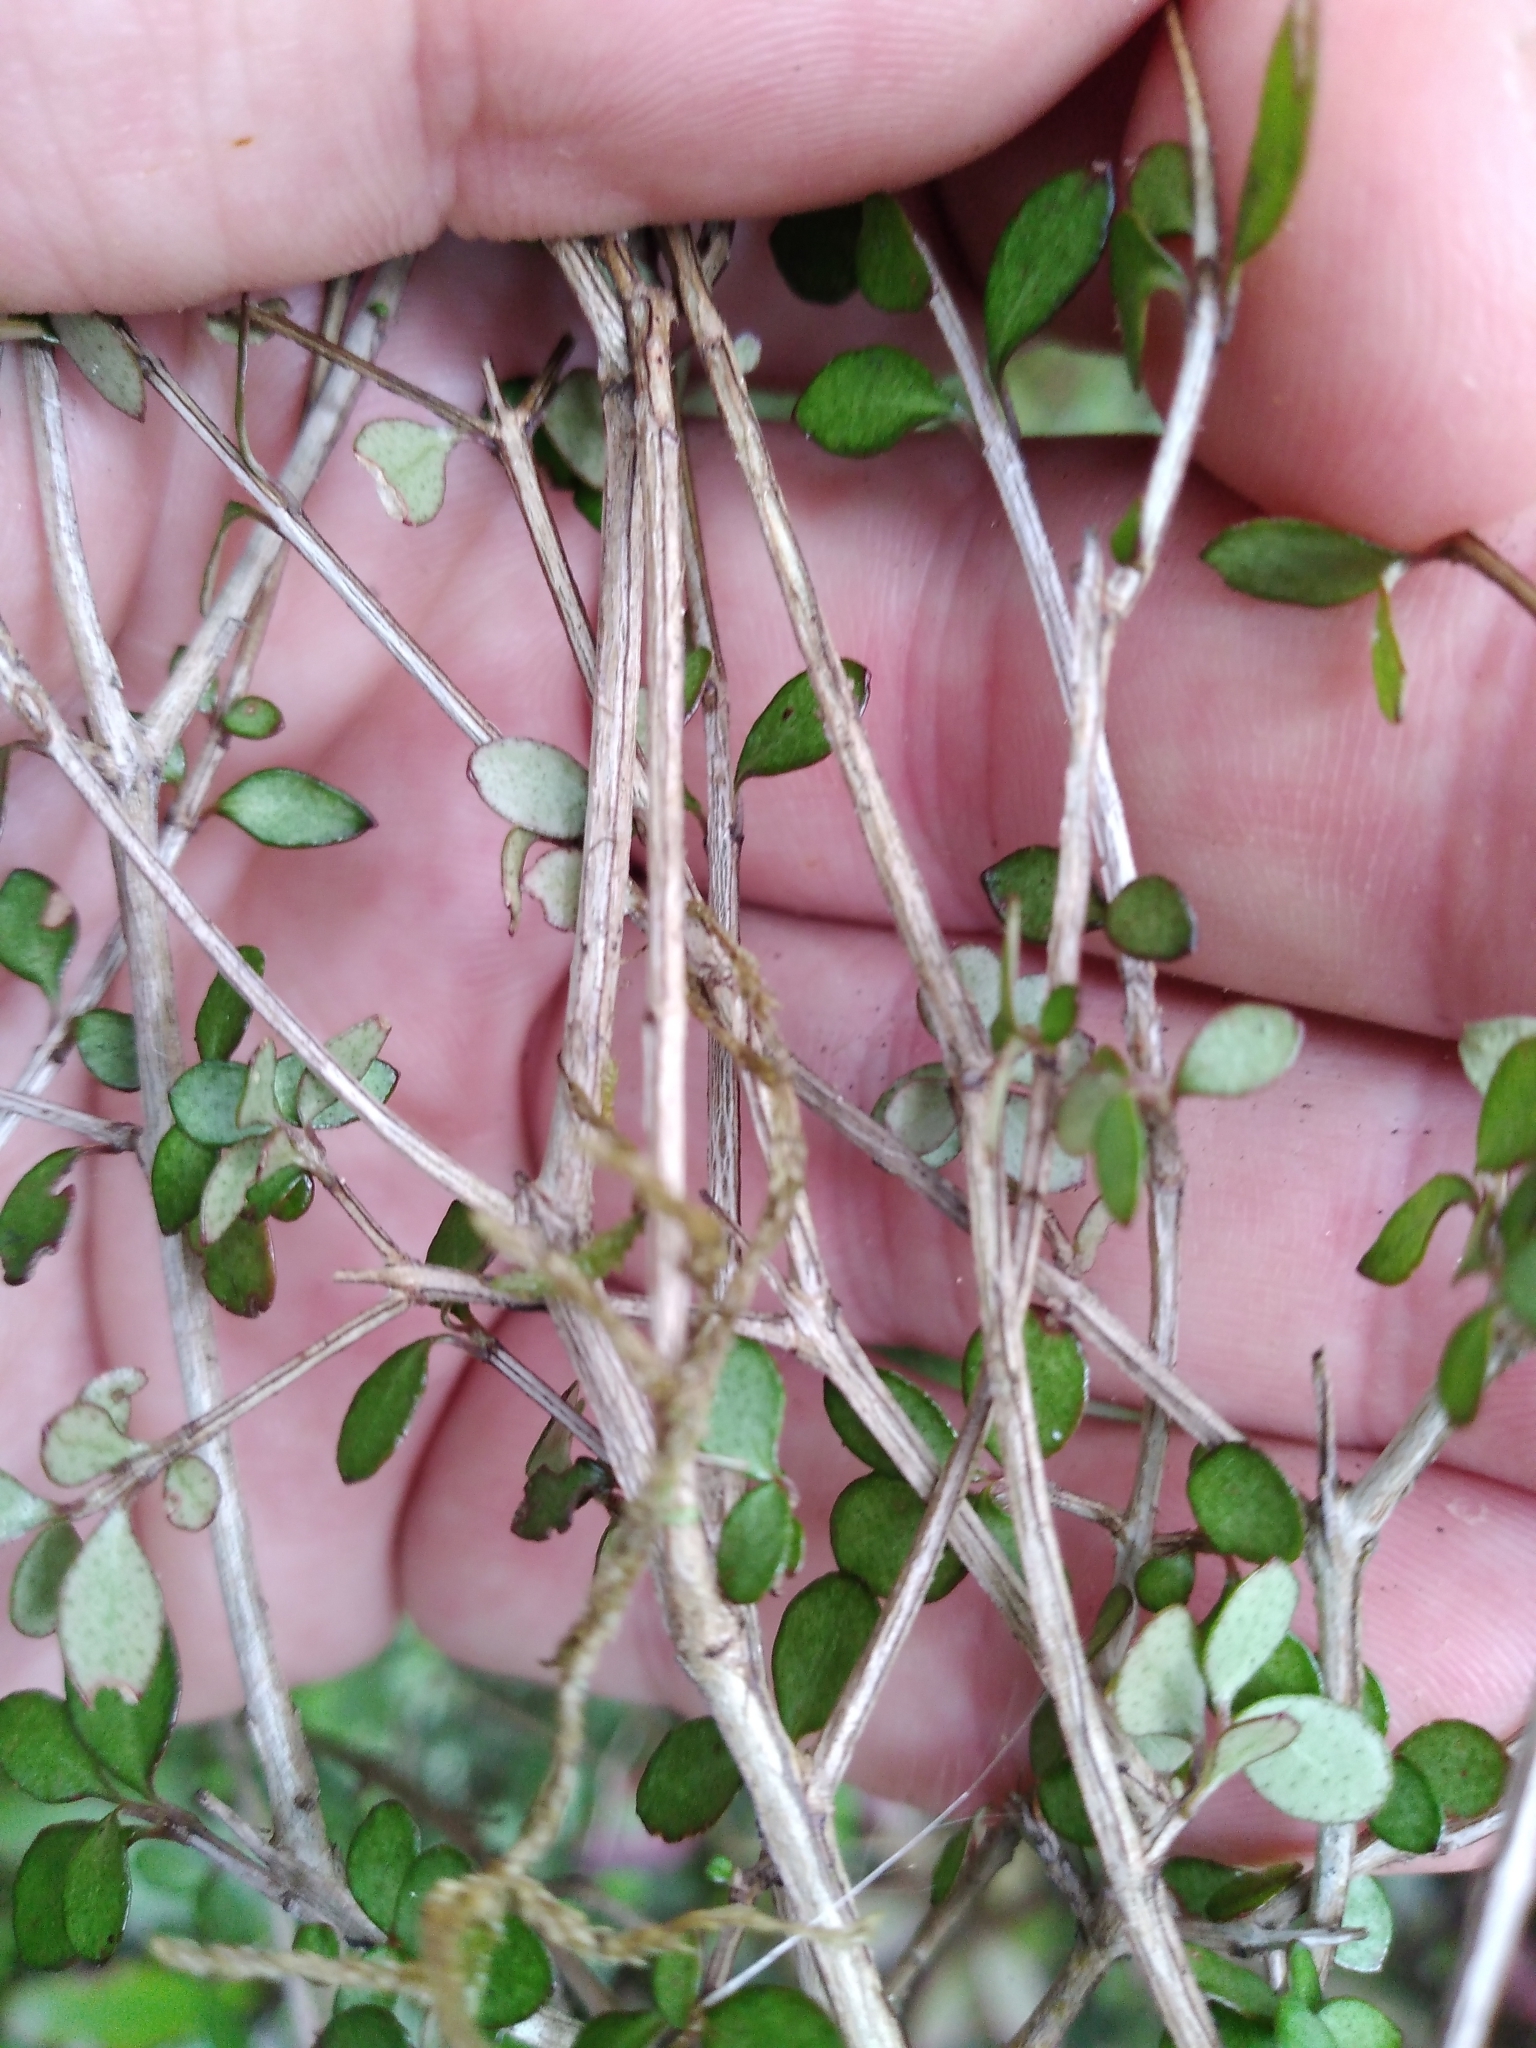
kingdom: Plantae
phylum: Tracheophyta
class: Magnoliopsida
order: Myrtales
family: Myrtaceae
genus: Neomyrtus
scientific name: Neomyrtus pedunculata
